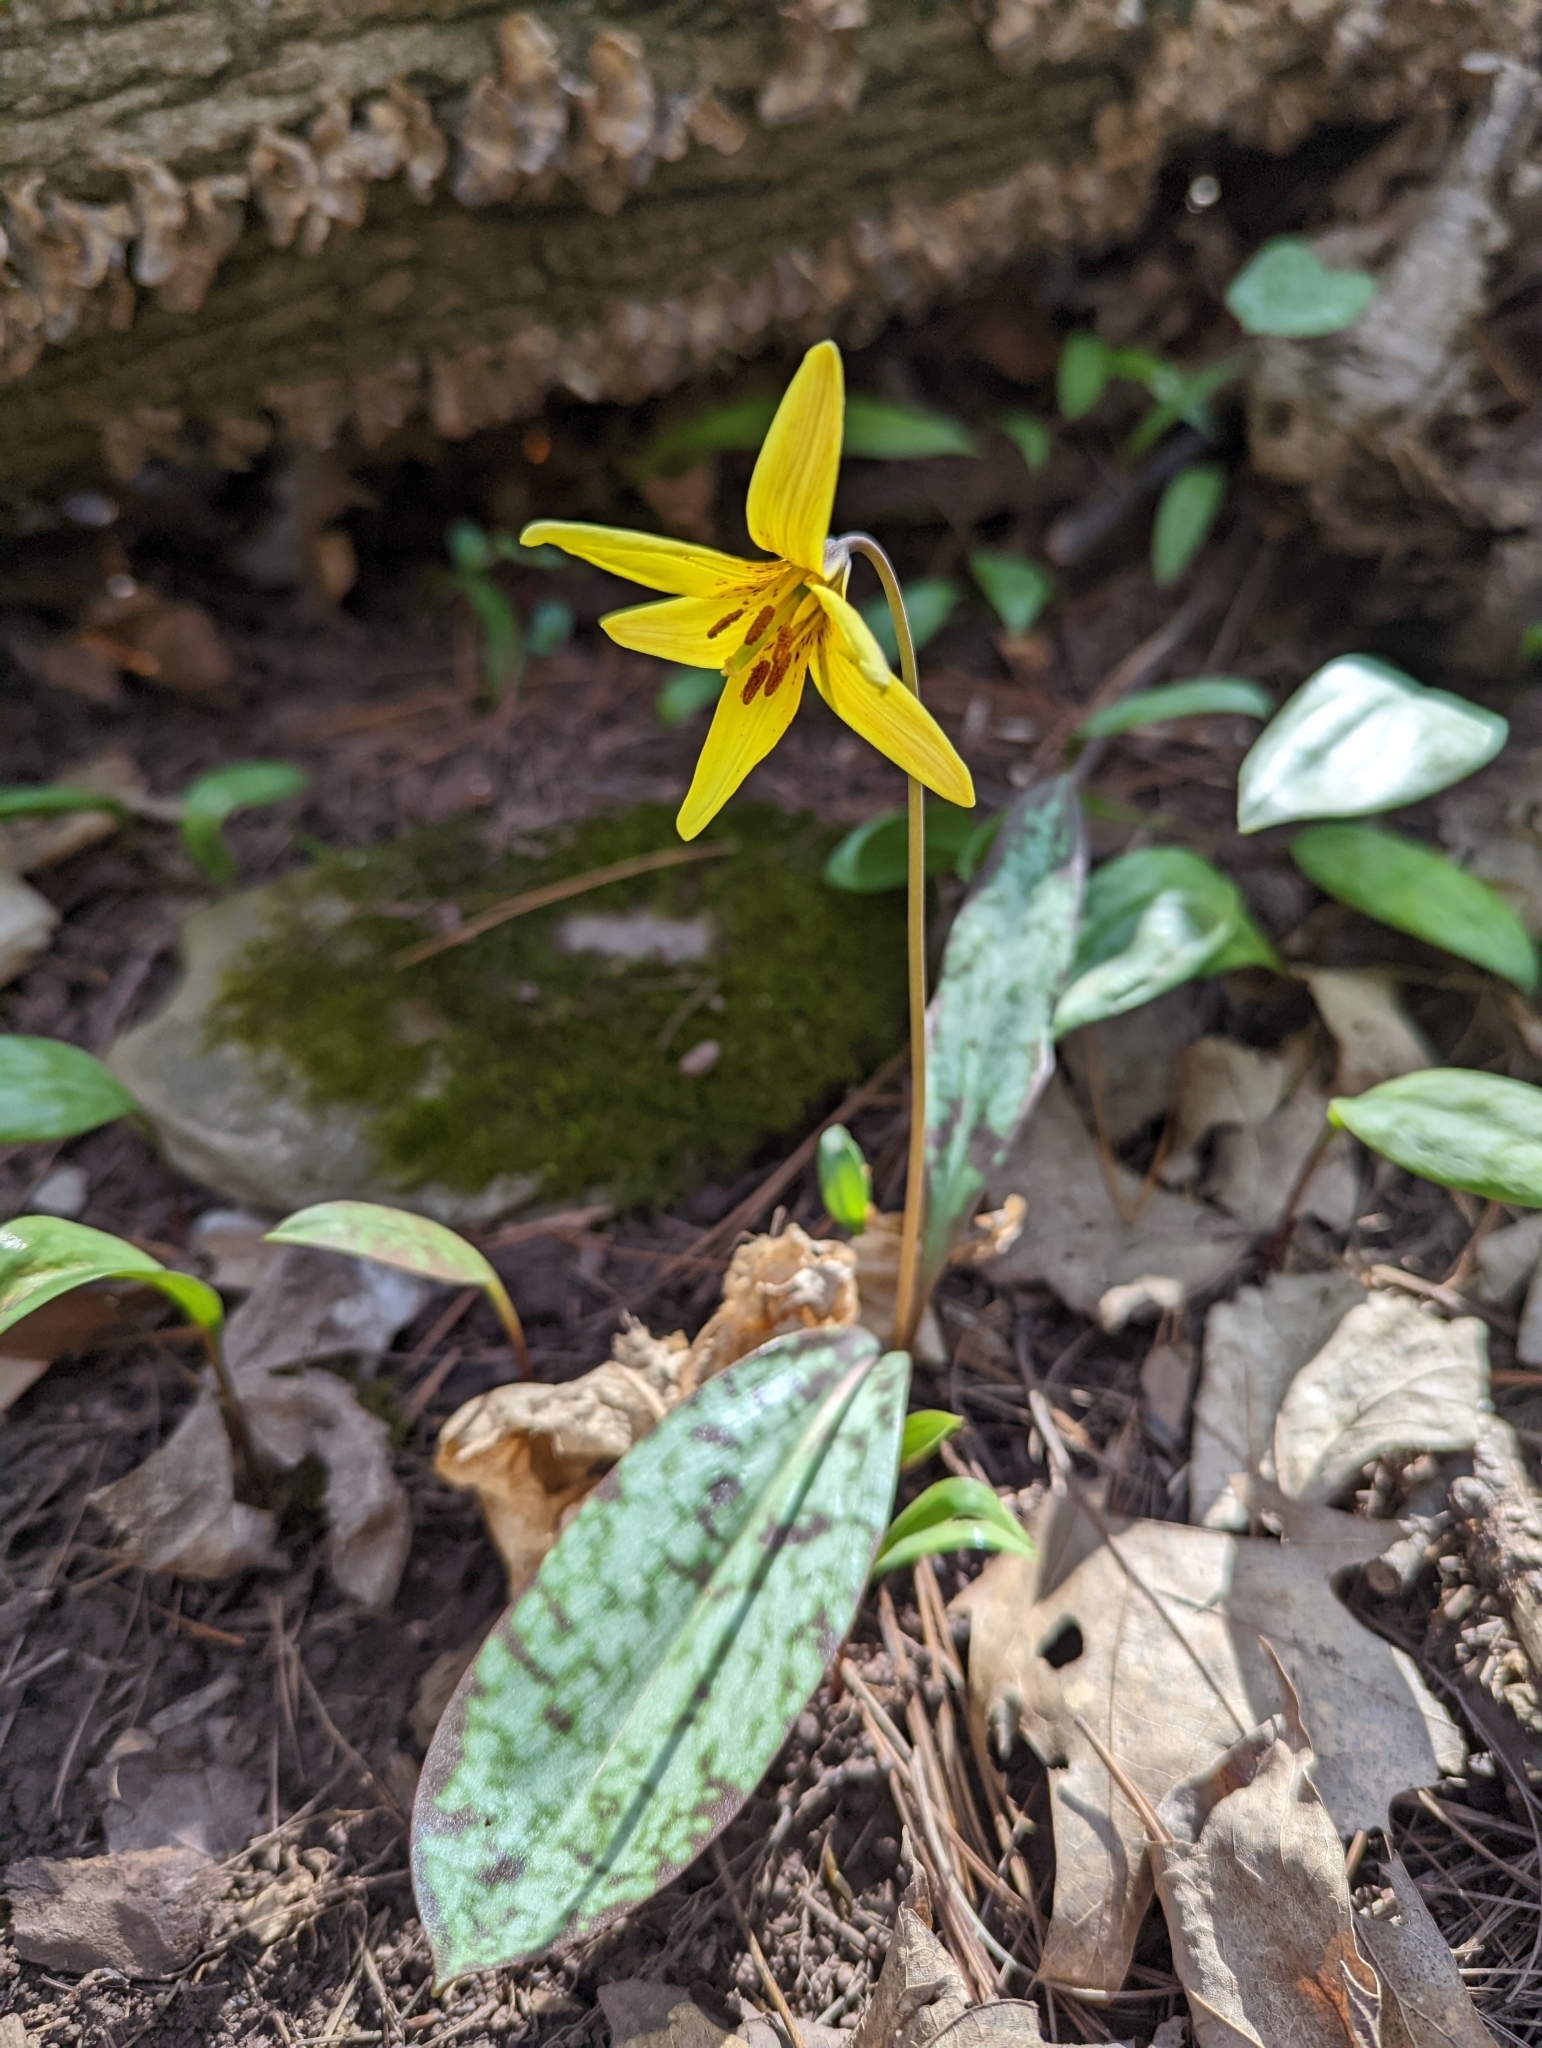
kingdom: Plantae
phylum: Tracheophyta
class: Liliopsida
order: Liliales
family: Liliaceae
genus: Erythronium
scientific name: Erythronium americanum
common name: Yellow adder's-tongue
